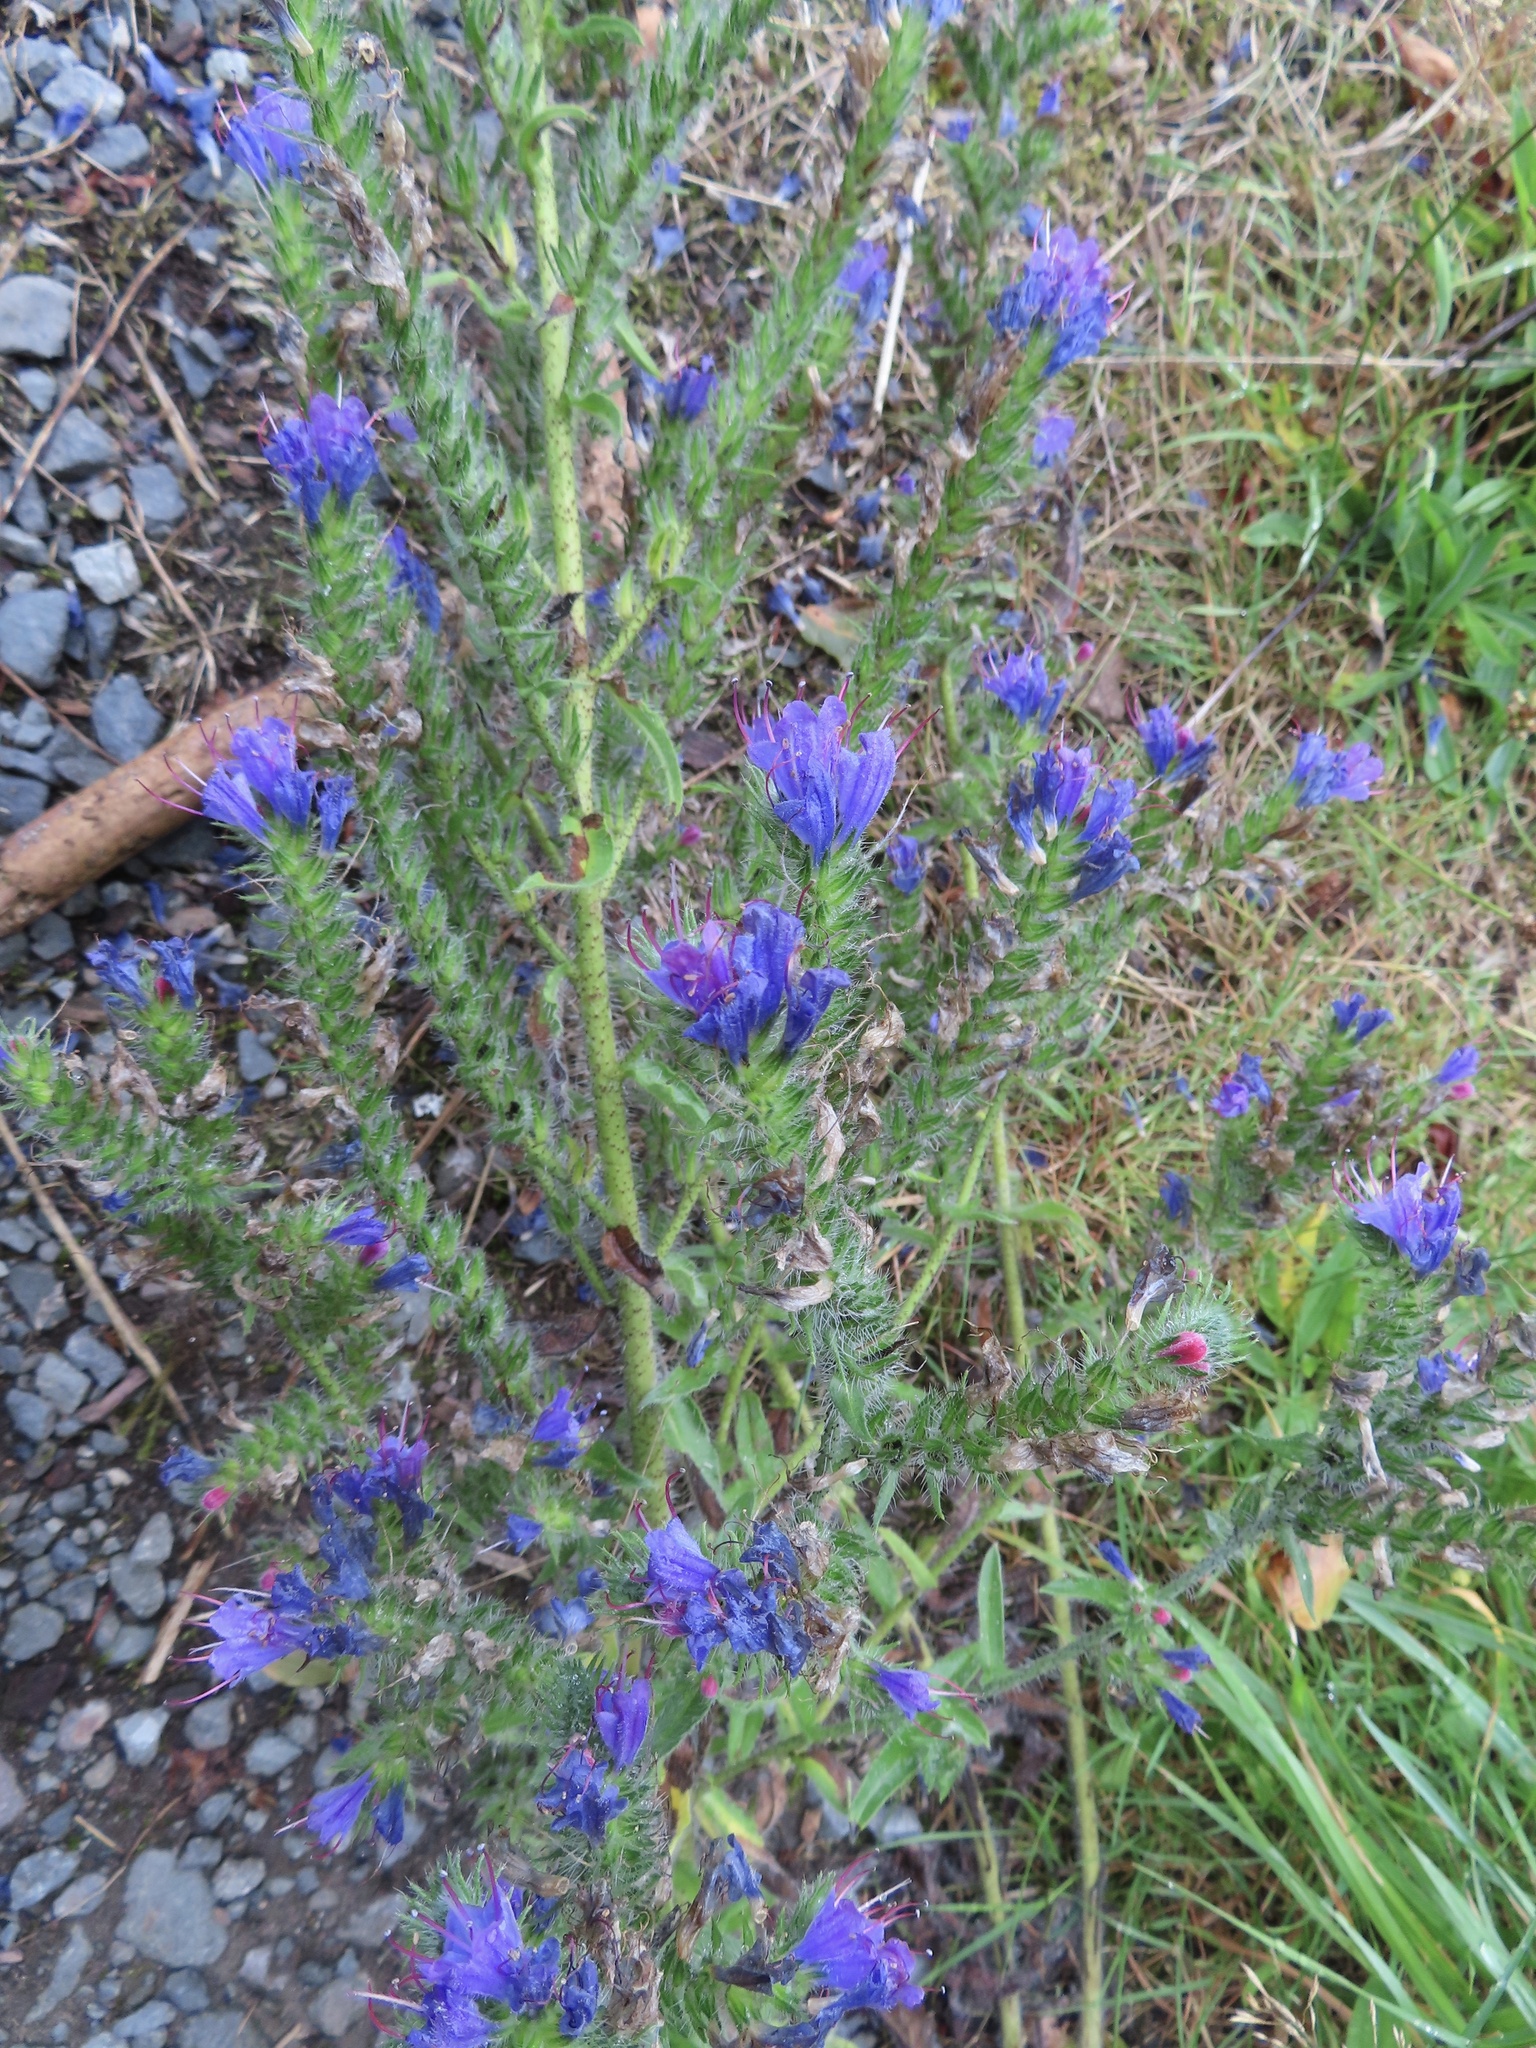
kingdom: Plantae
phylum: Tracheophyta
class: Magnoliopsida
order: Boraginales
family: Boraginaceae
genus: Echium
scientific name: Echium vulgare
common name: Common viper's bugloss
